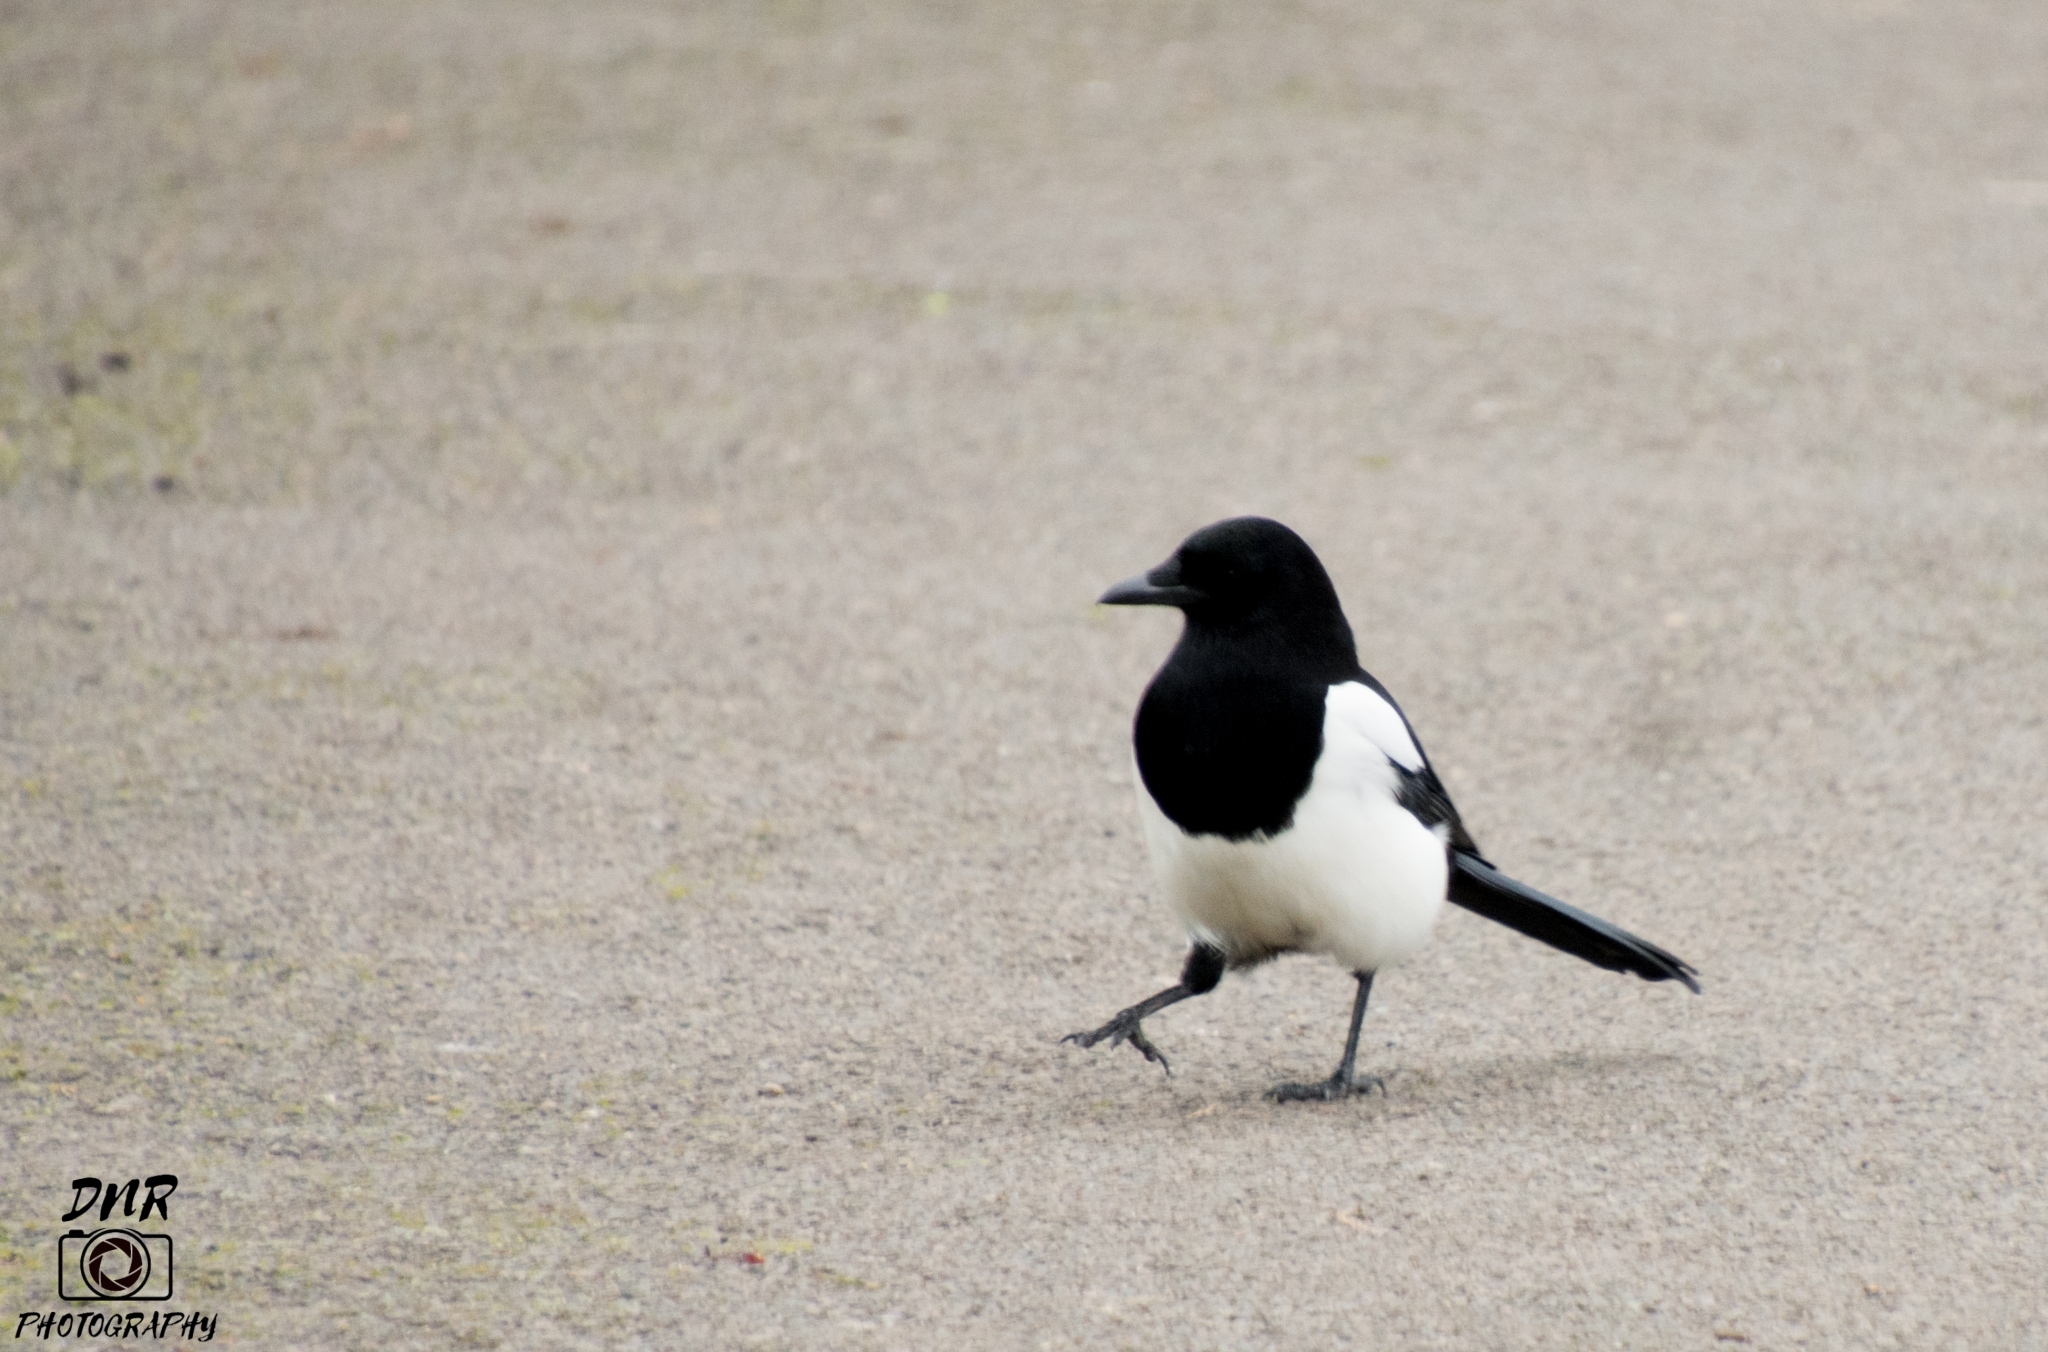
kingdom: Animalia
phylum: Chordata
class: Aves
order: Passeriformes
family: Corvidae
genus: Pica
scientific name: Pica pica
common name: Eurasian magpie
